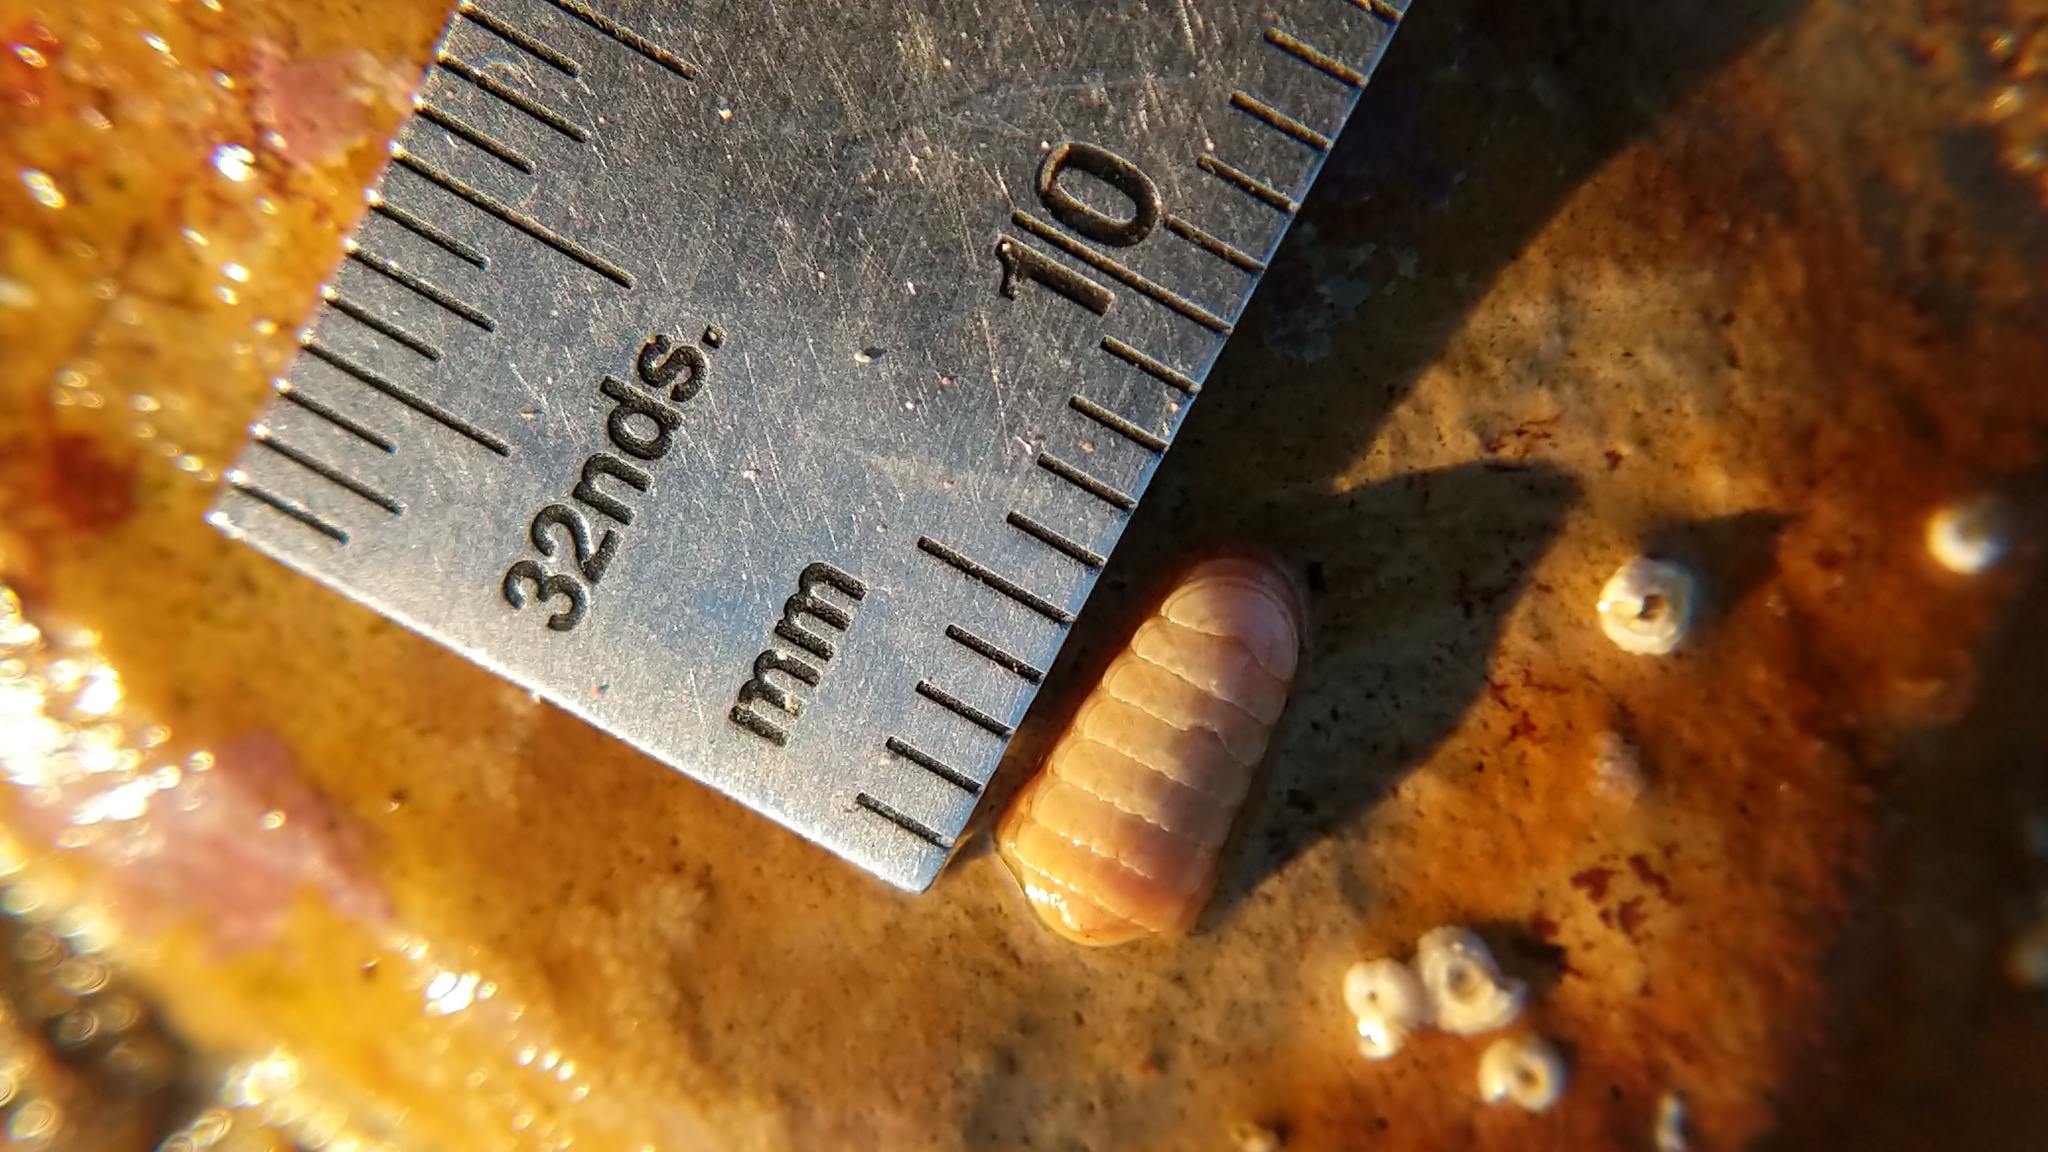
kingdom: Animalia
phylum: Mollusca
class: Polyplacophora
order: Lepidopleurida
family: Leptochitonidae
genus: Leptochiton
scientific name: Leptochiton rugatus
